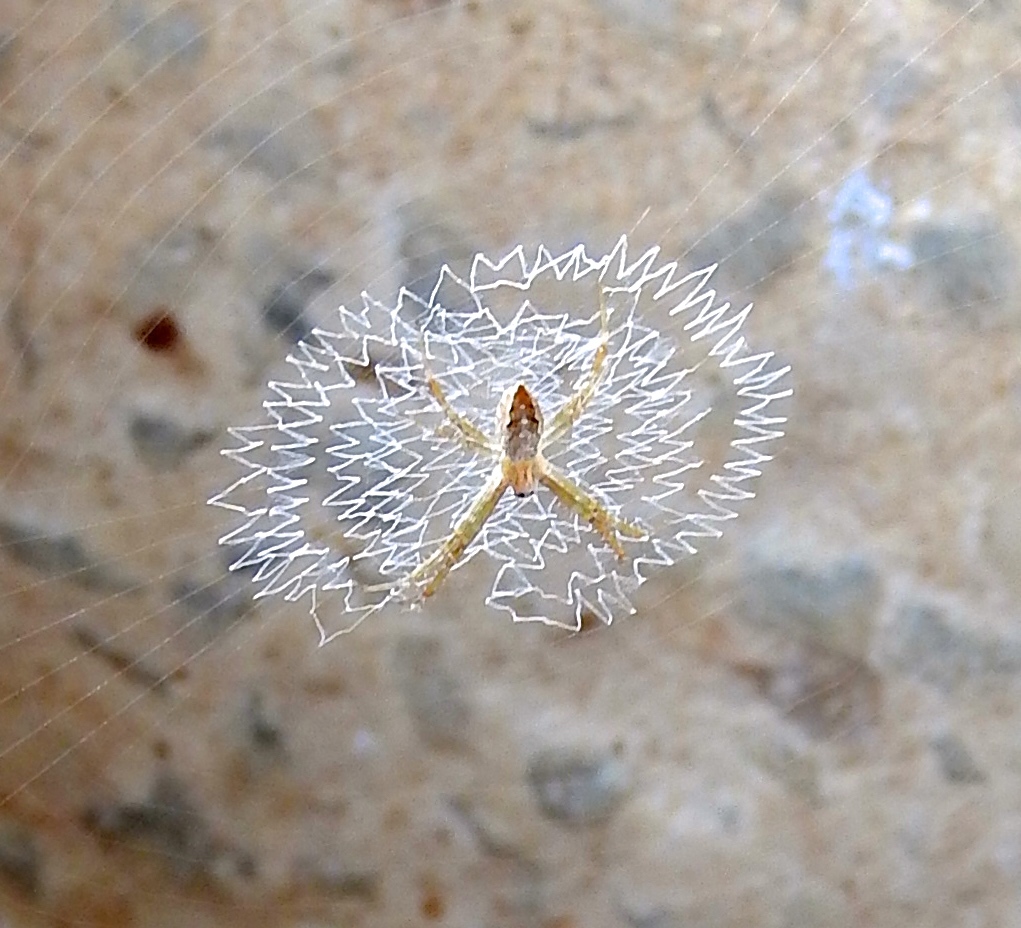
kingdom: Animalia
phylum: Arthropoda
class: Arachnida
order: Araneae
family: Araneidae
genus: Argiope
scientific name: Argiope
